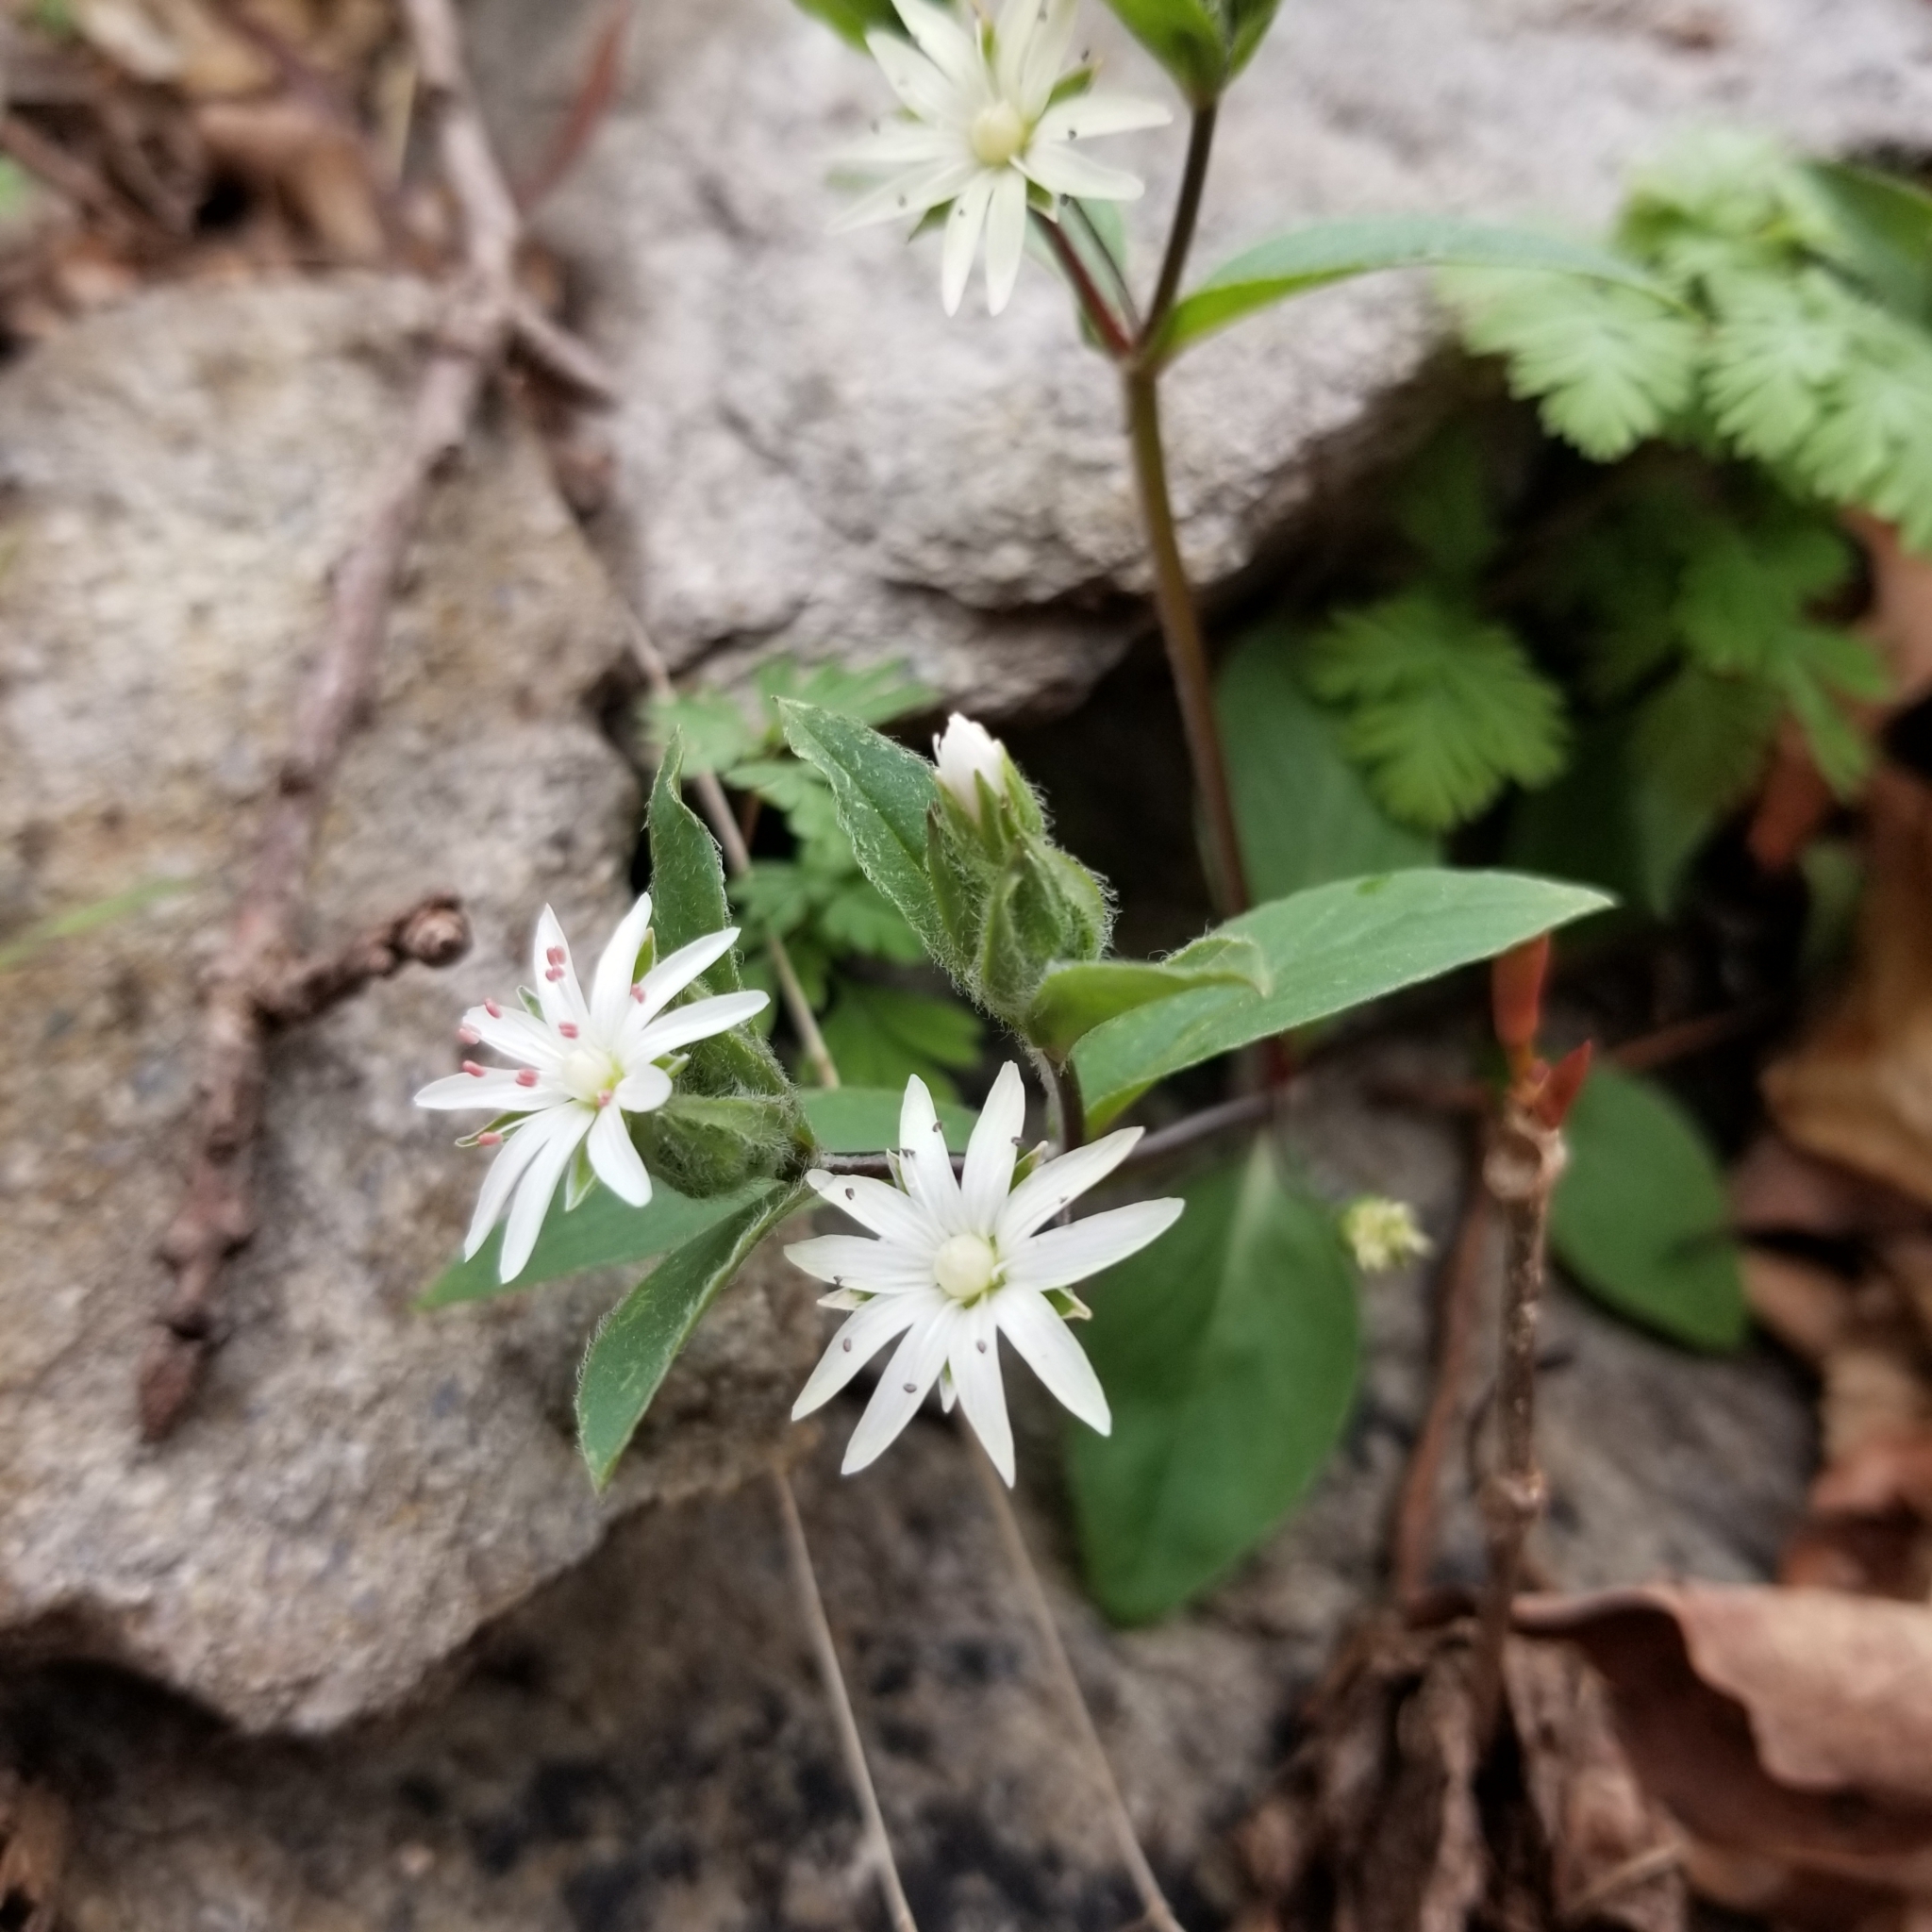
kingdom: Plantae
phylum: Tracheophyta
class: Magnoliopsida
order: Caryophyllales
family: Caryophyllaceae
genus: Stellaria
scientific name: Stellaria pubera
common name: Star chickweed
